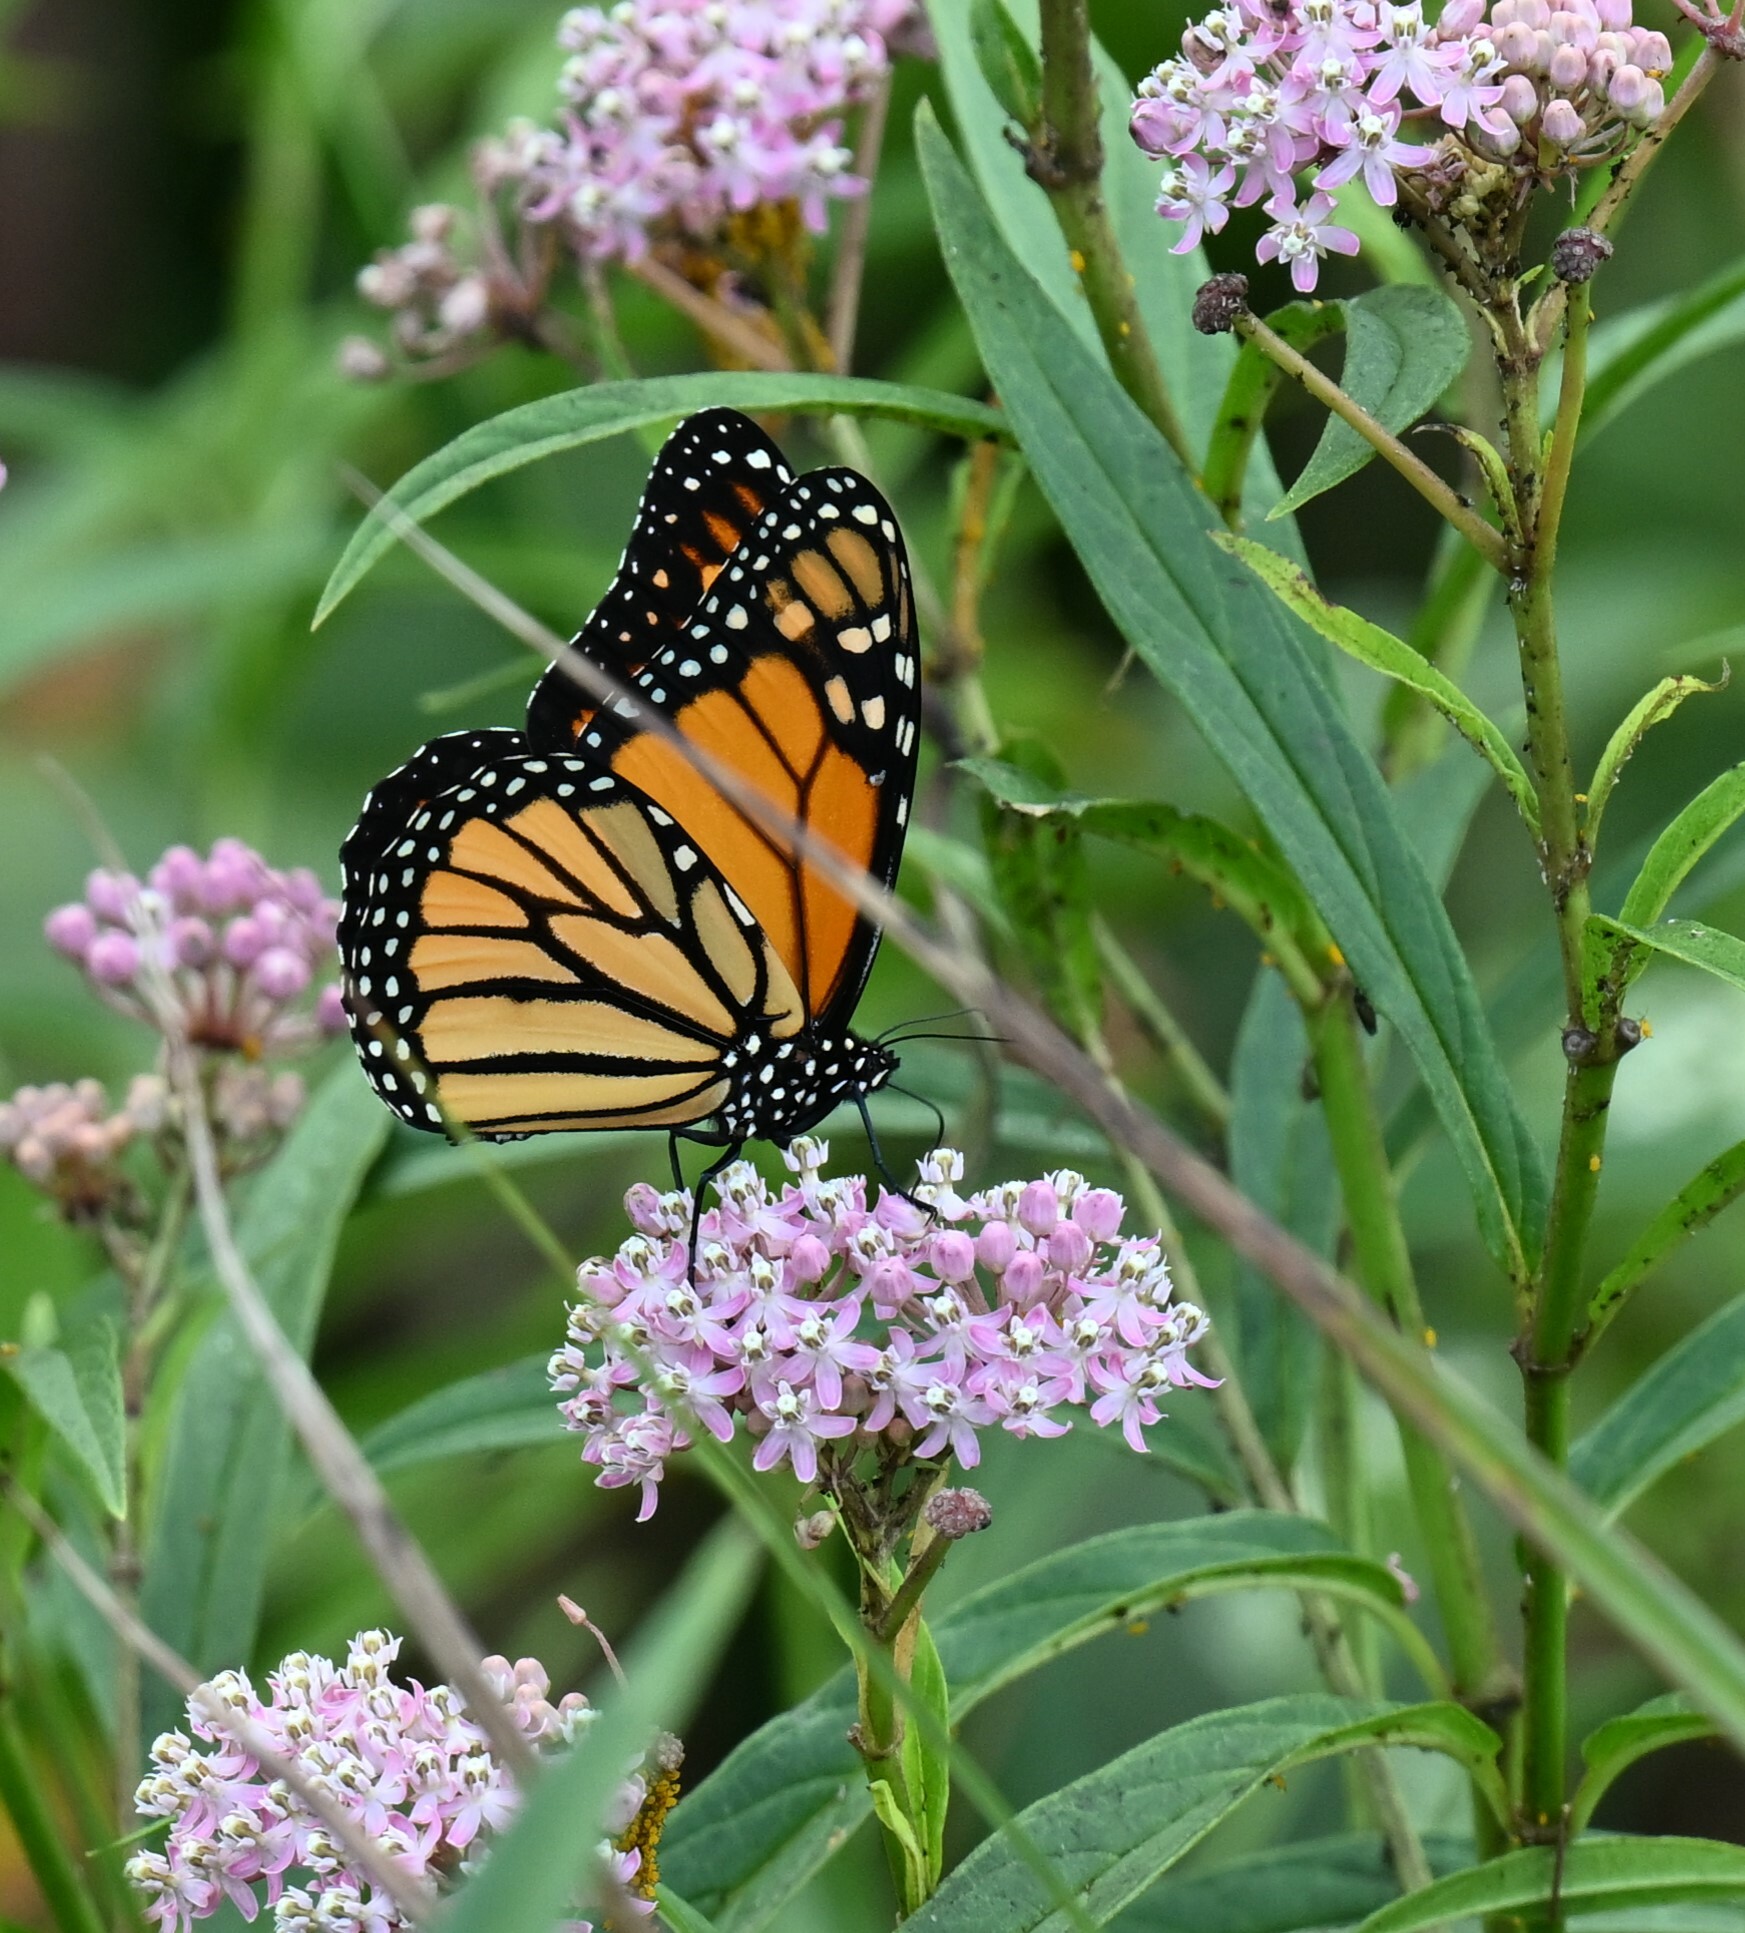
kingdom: Animalia
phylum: Arthropoda
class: Insecta
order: Lepidoptera
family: Nymphalidae
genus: Danaus
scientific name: Danaus plexippus
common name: Monarch
